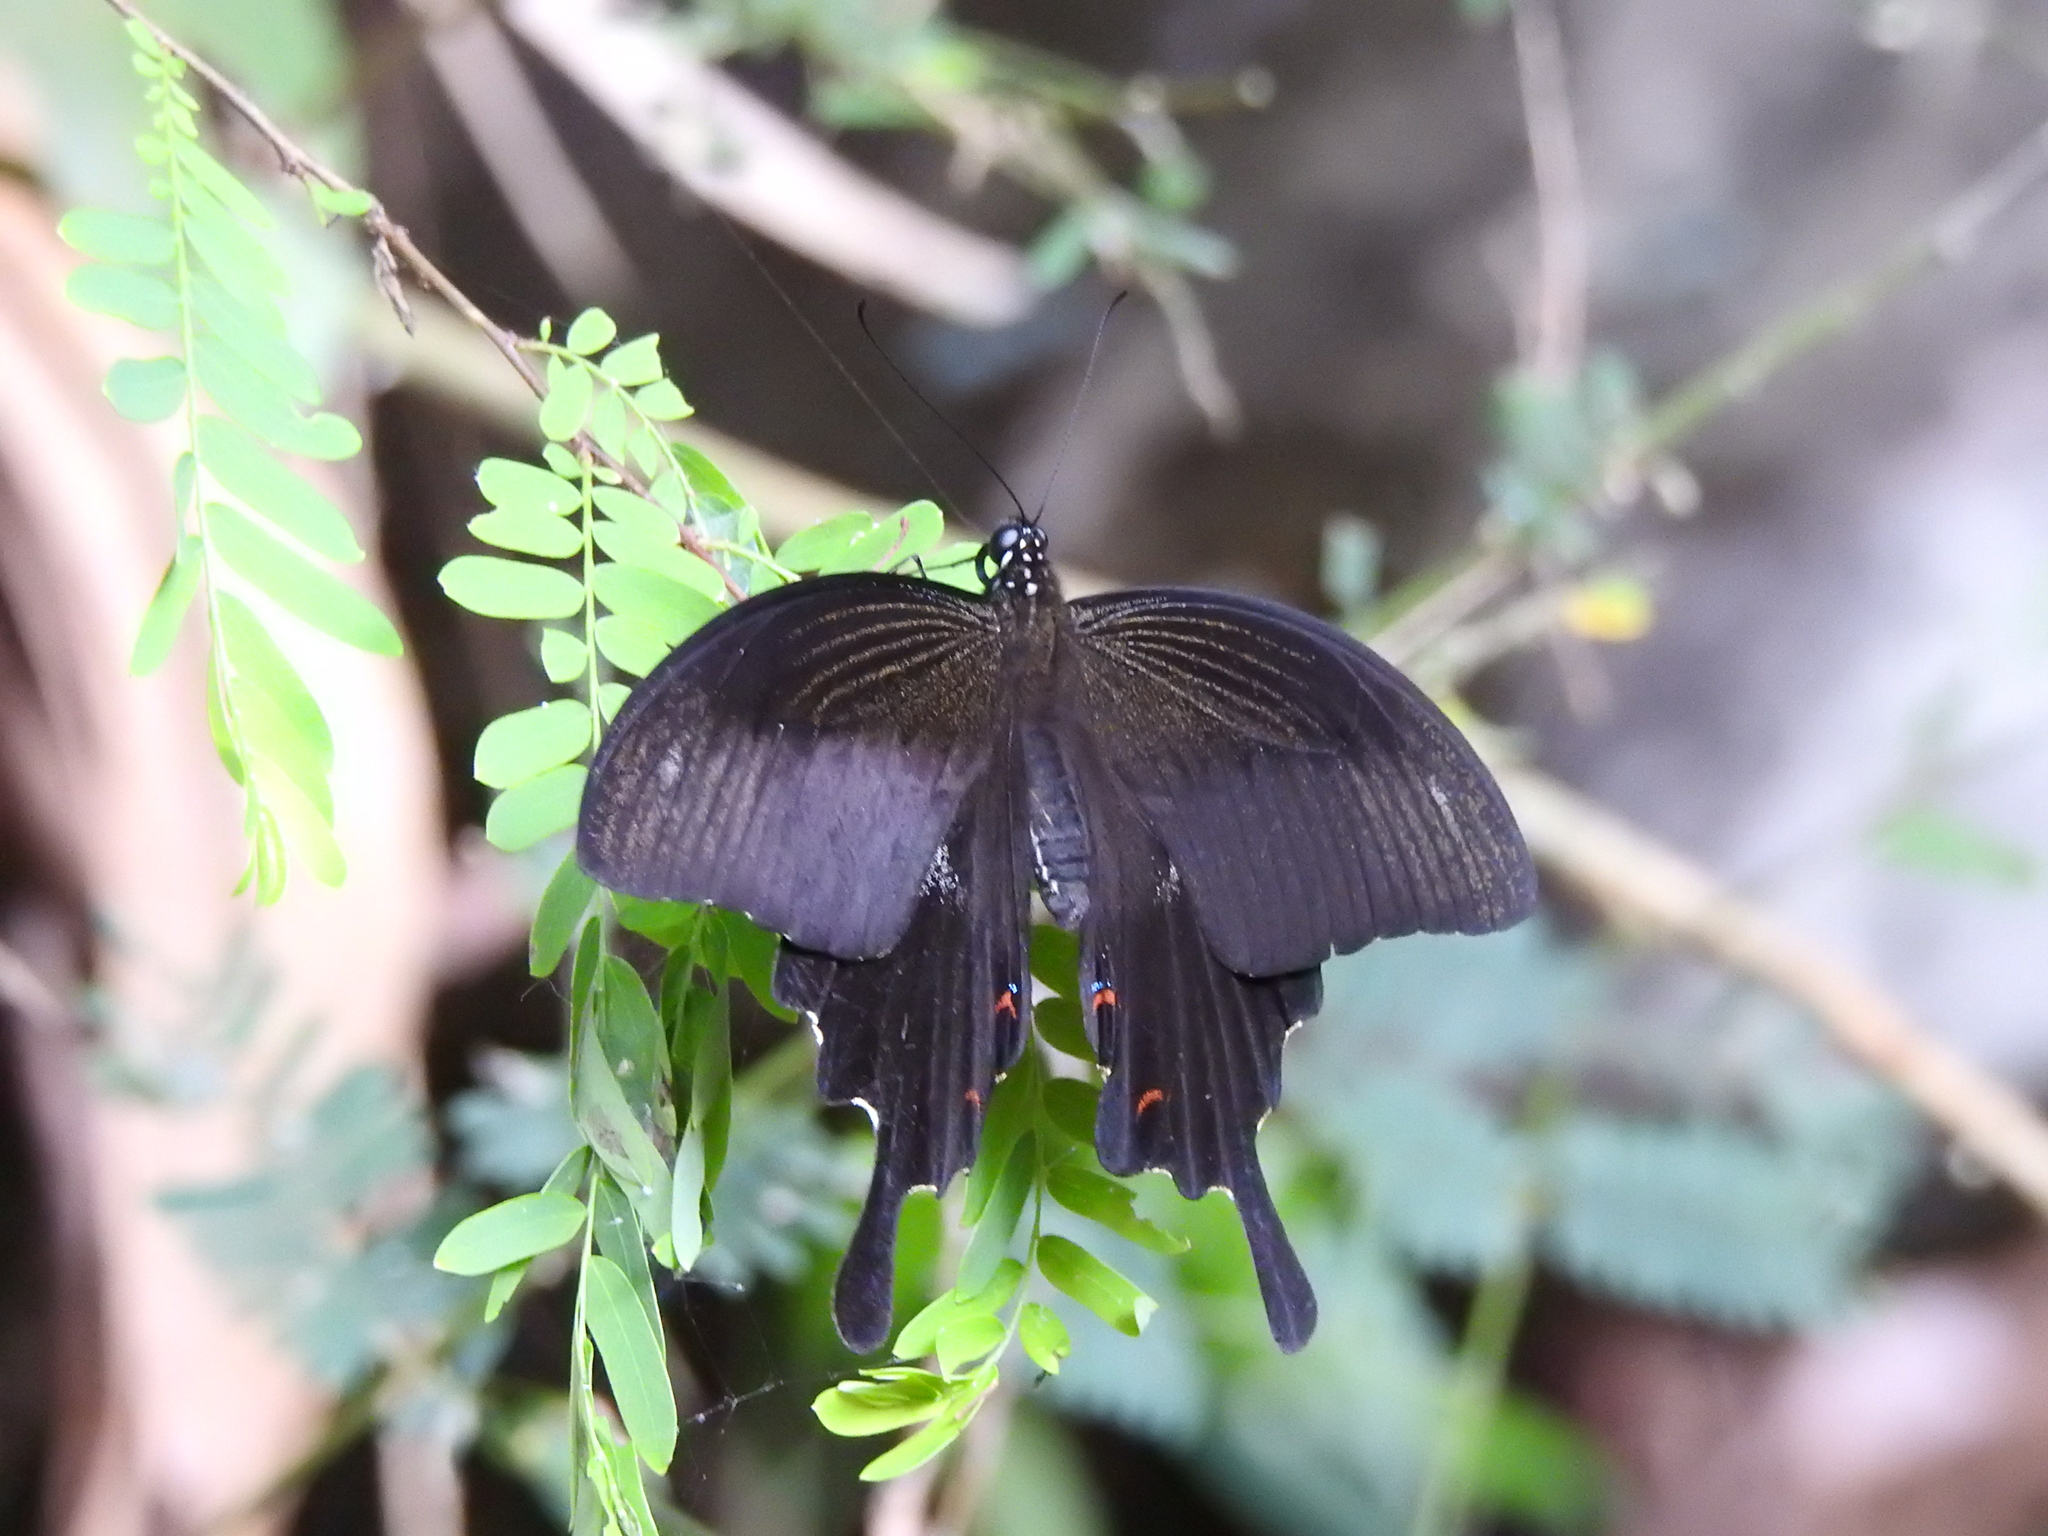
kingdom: Animalia
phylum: Arthropoda
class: Insecta
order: Lepidoptera
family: Papilionidae
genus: Papilio
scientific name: Papilio helenus
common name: Red helen
